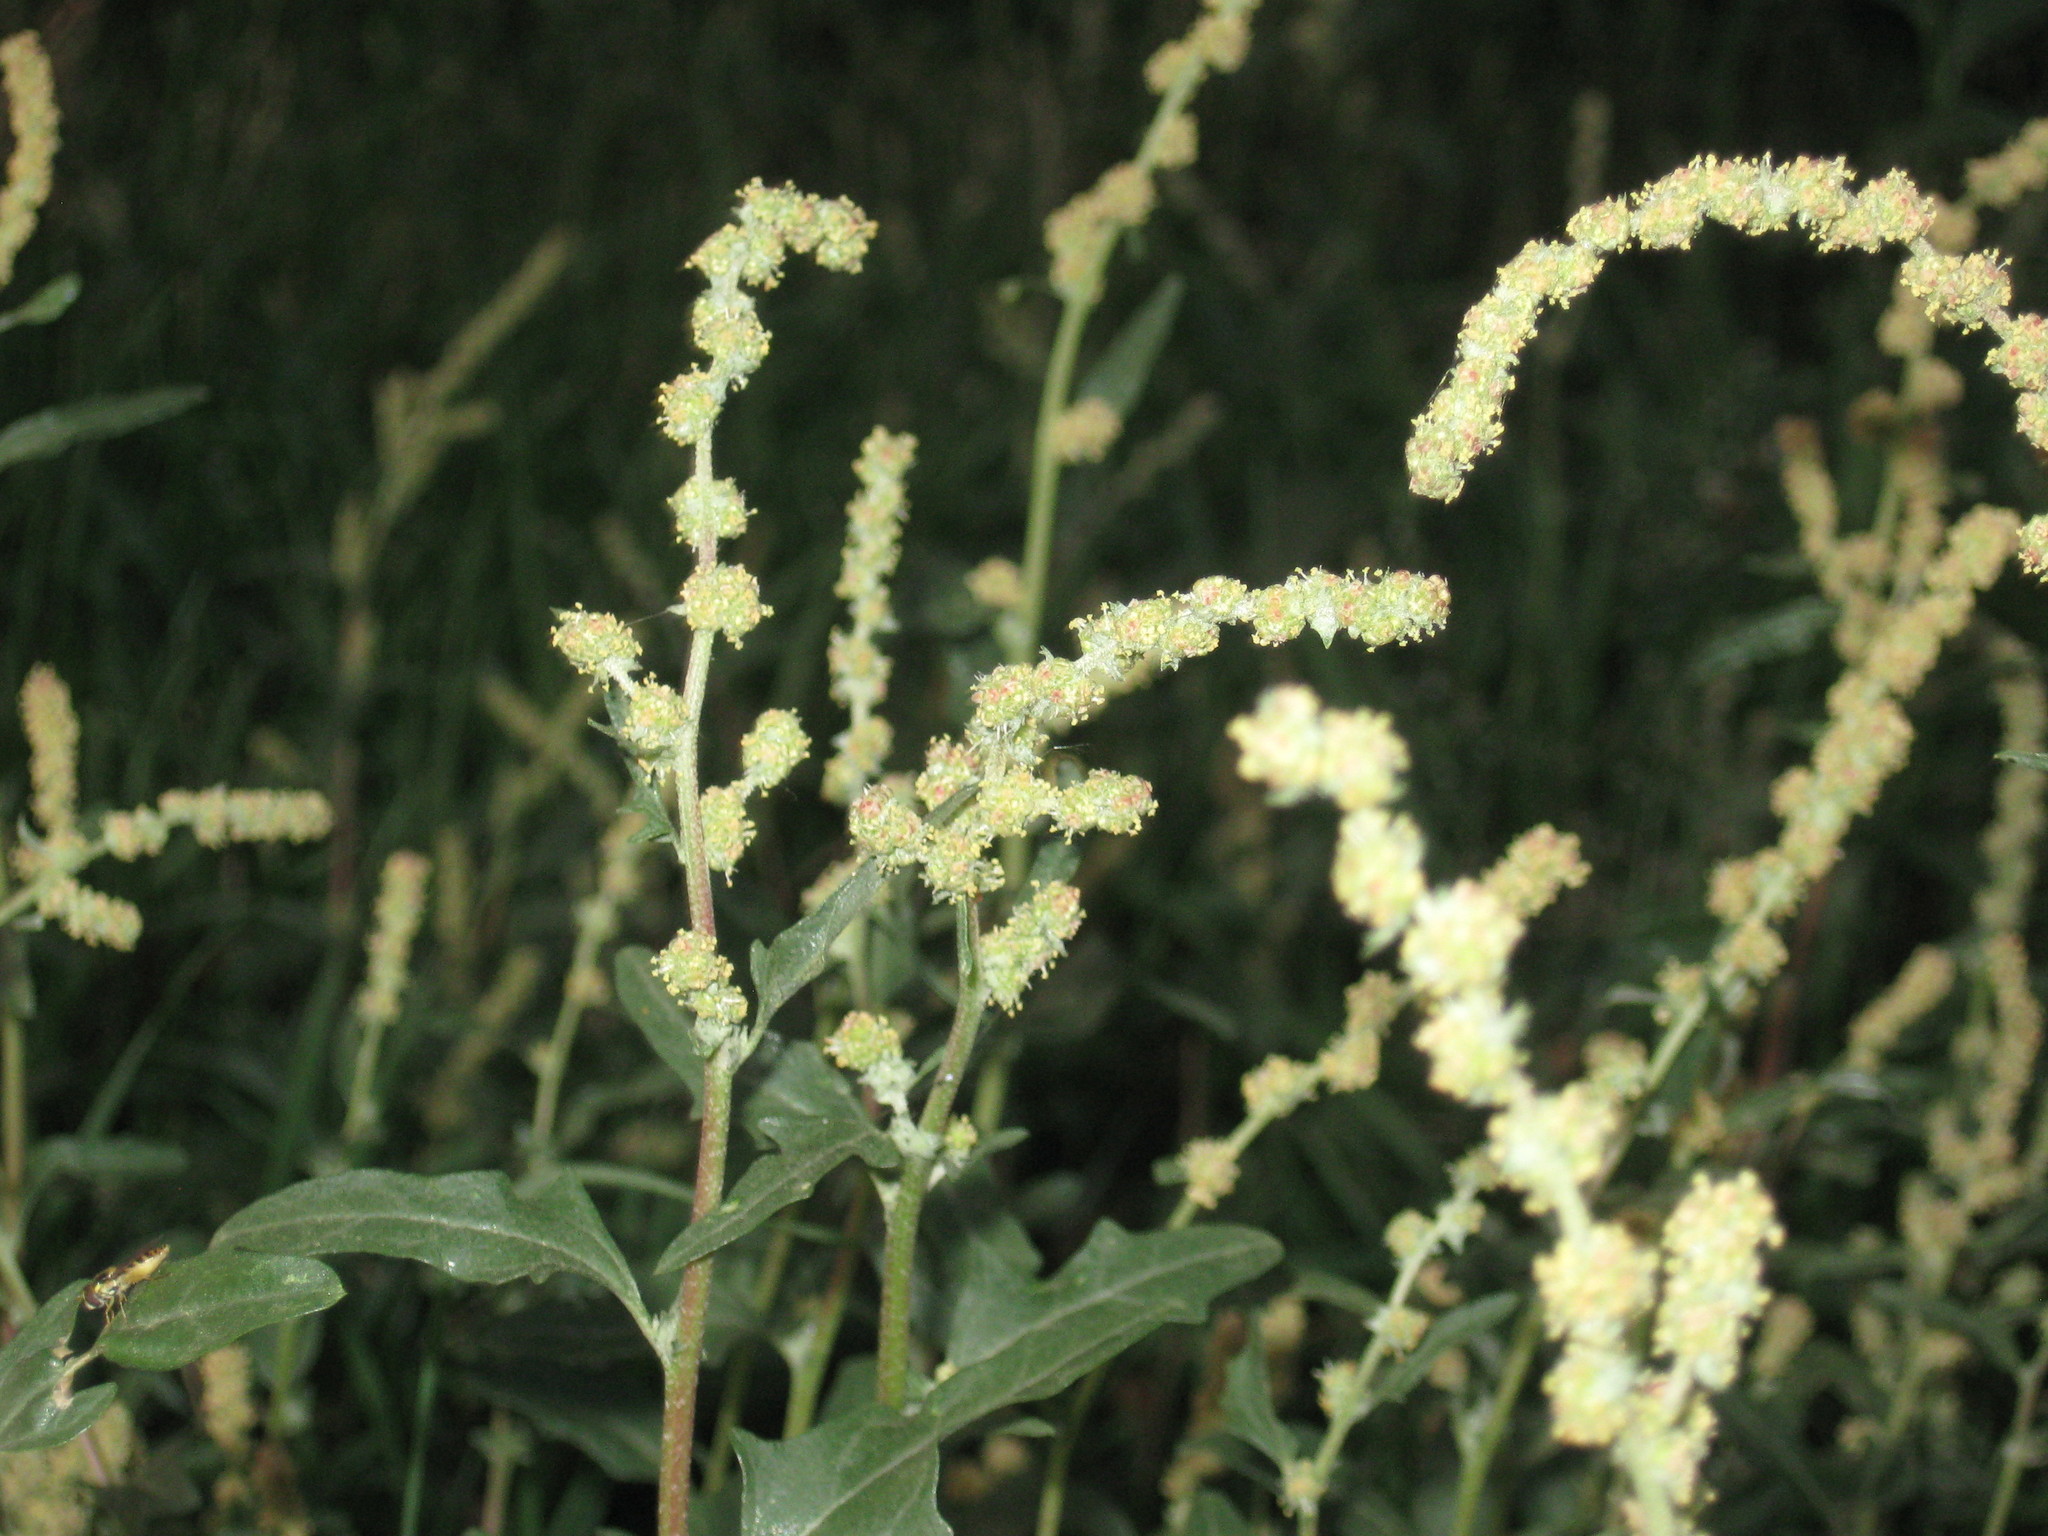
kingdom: Plantae
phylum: Tracheophyta
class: Magnoliopsida
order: Caryophyllales
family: Amaranthaceae
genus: Atriplex
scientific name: Atriplex tatarica
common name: Tatarian orache
